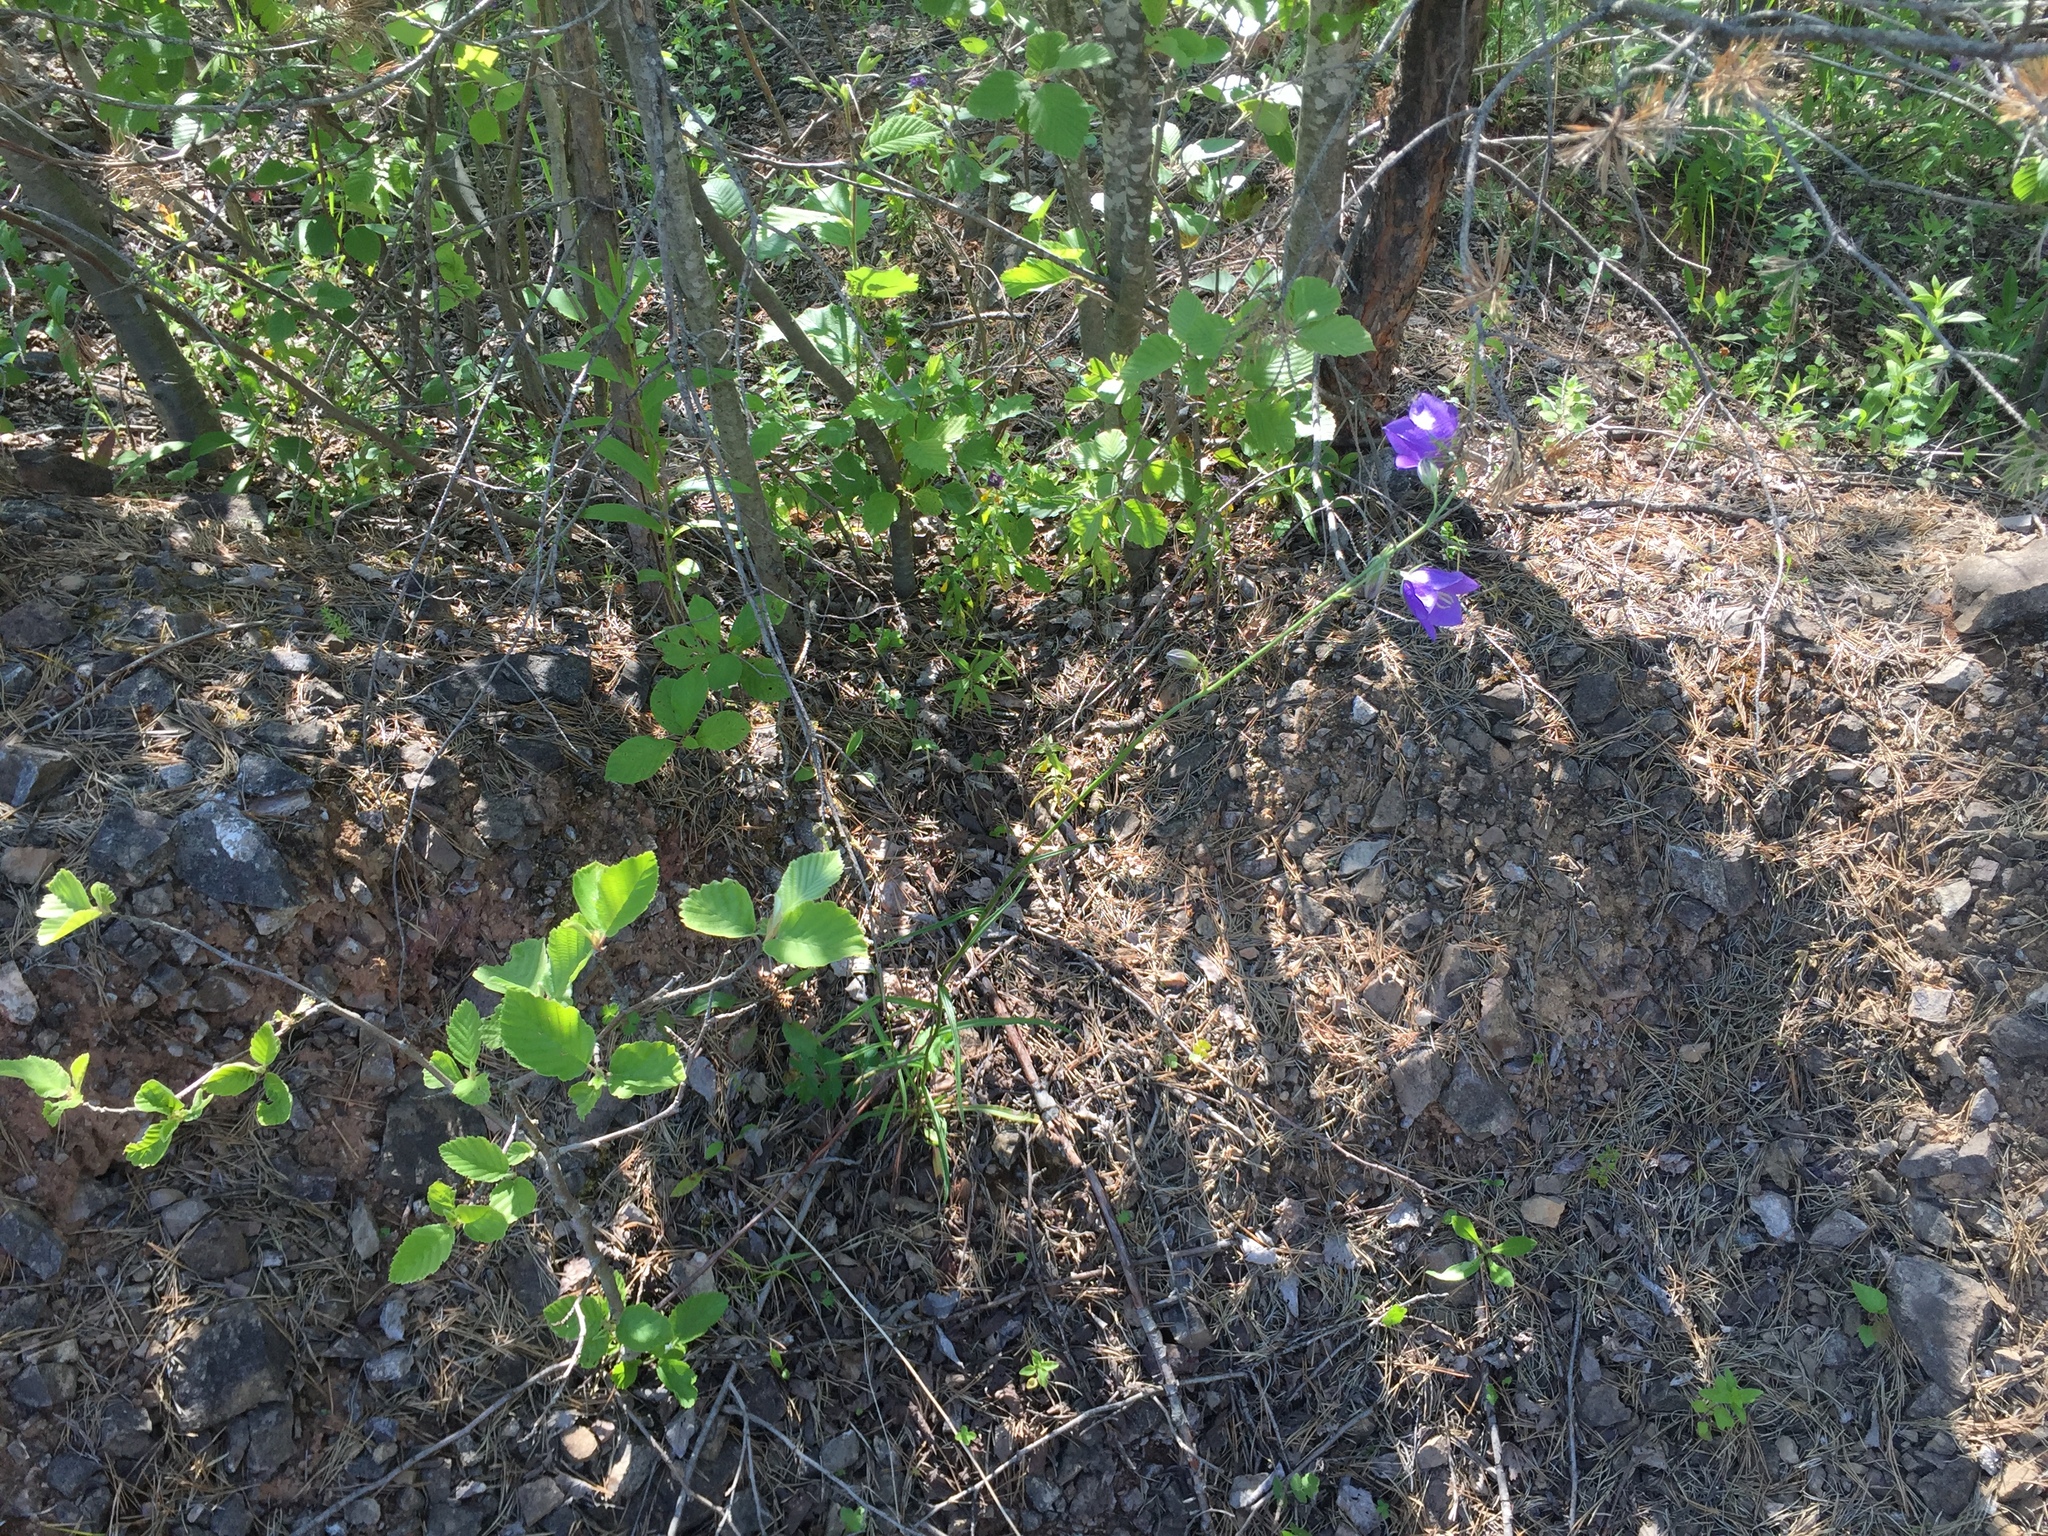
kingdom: Plantae
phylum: Tracheophyta
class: Magnoliopsida
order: Asterales
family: Campanulaceae
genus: Campanula
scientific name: Campanula persicifolia
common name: Peach-leaved bellflower
